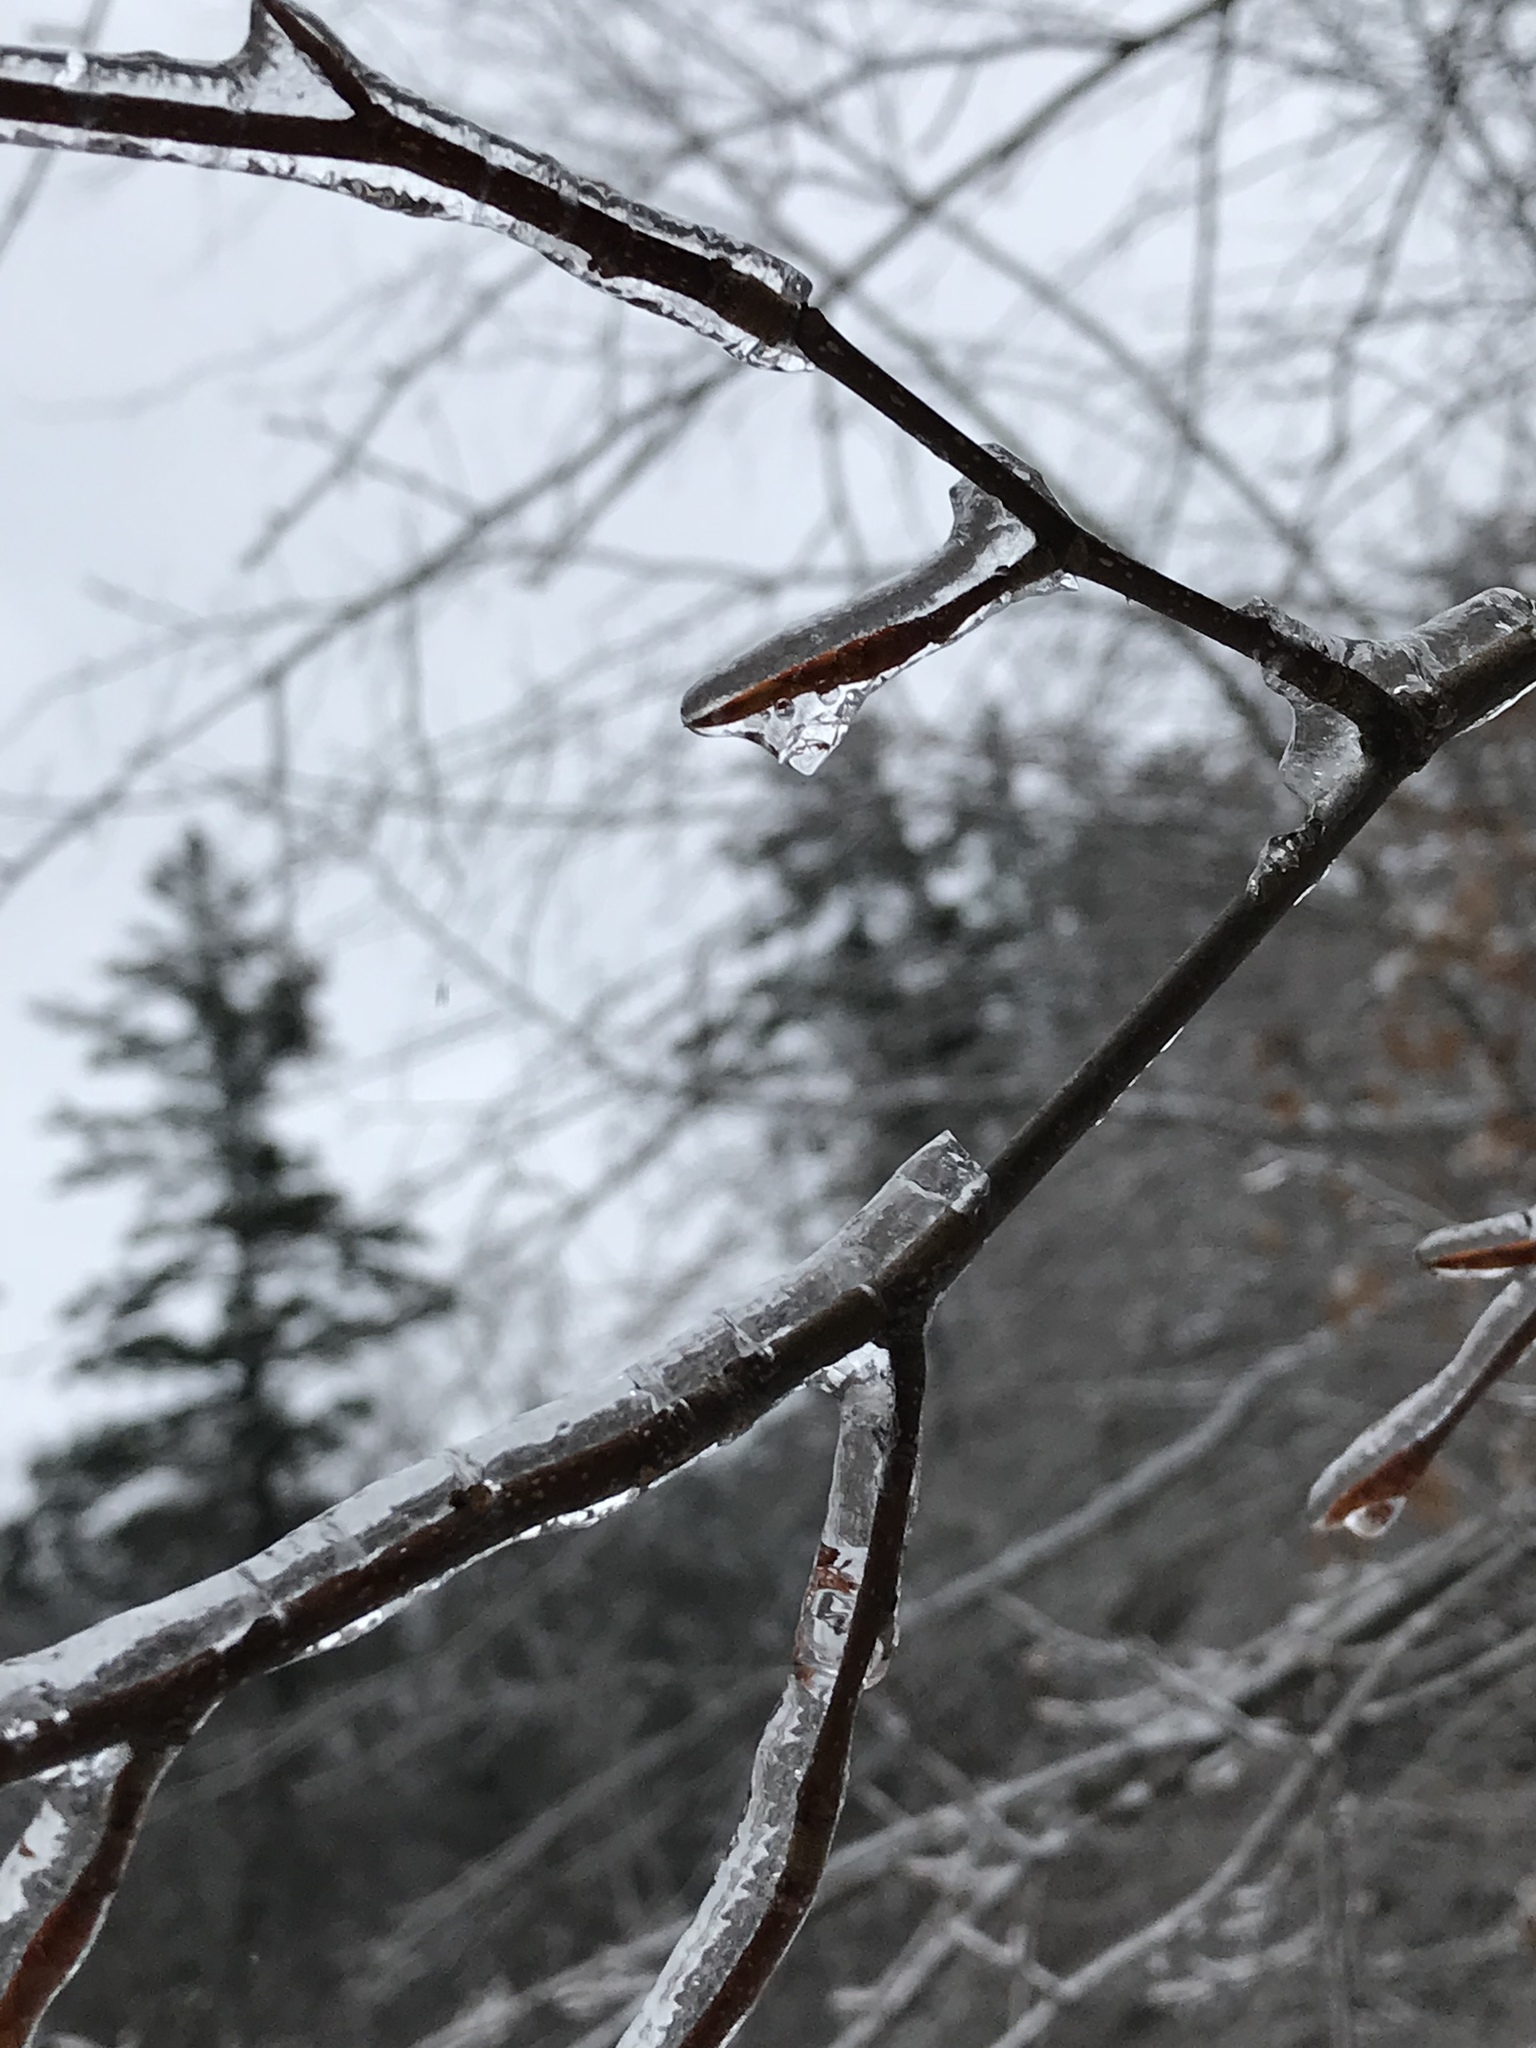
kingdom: Plantae
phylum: Tracheophyta
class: Magnoliopsida
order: Fagales
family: Fagaceae
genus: Fagus
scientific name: Fagus grandifolia
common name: American beech
